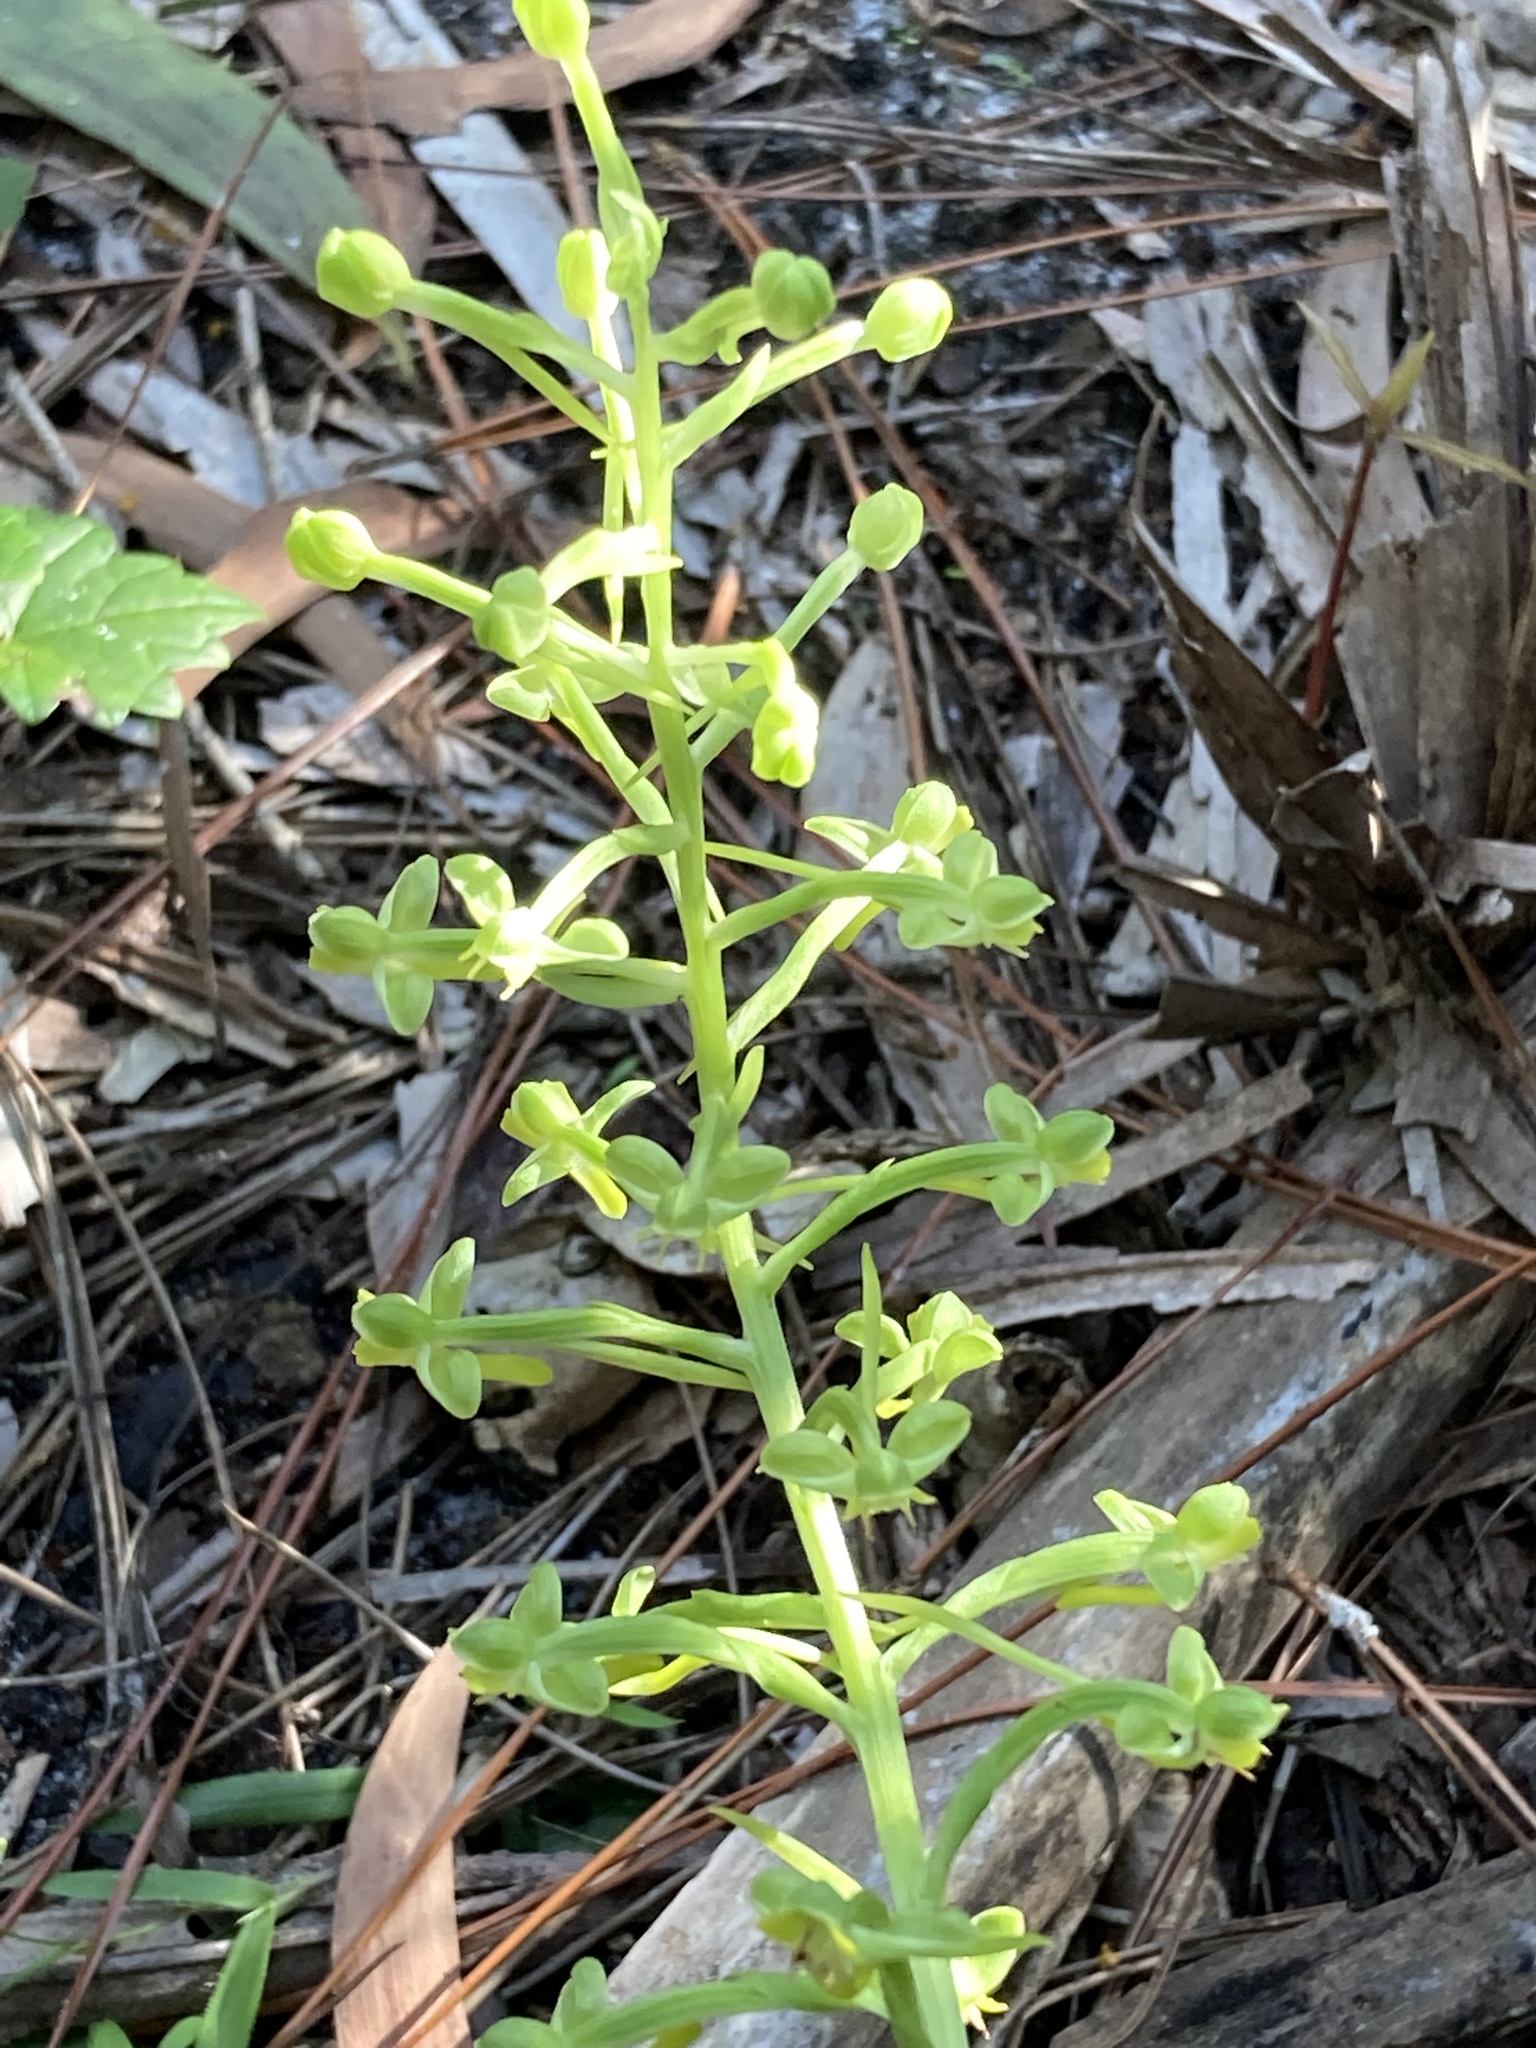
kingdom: Plantae
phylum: Tracheophyta
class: Liliopsida
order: Asparagales
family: Orchidaceae
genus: Habenaria
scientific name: Habenaria floribunda
